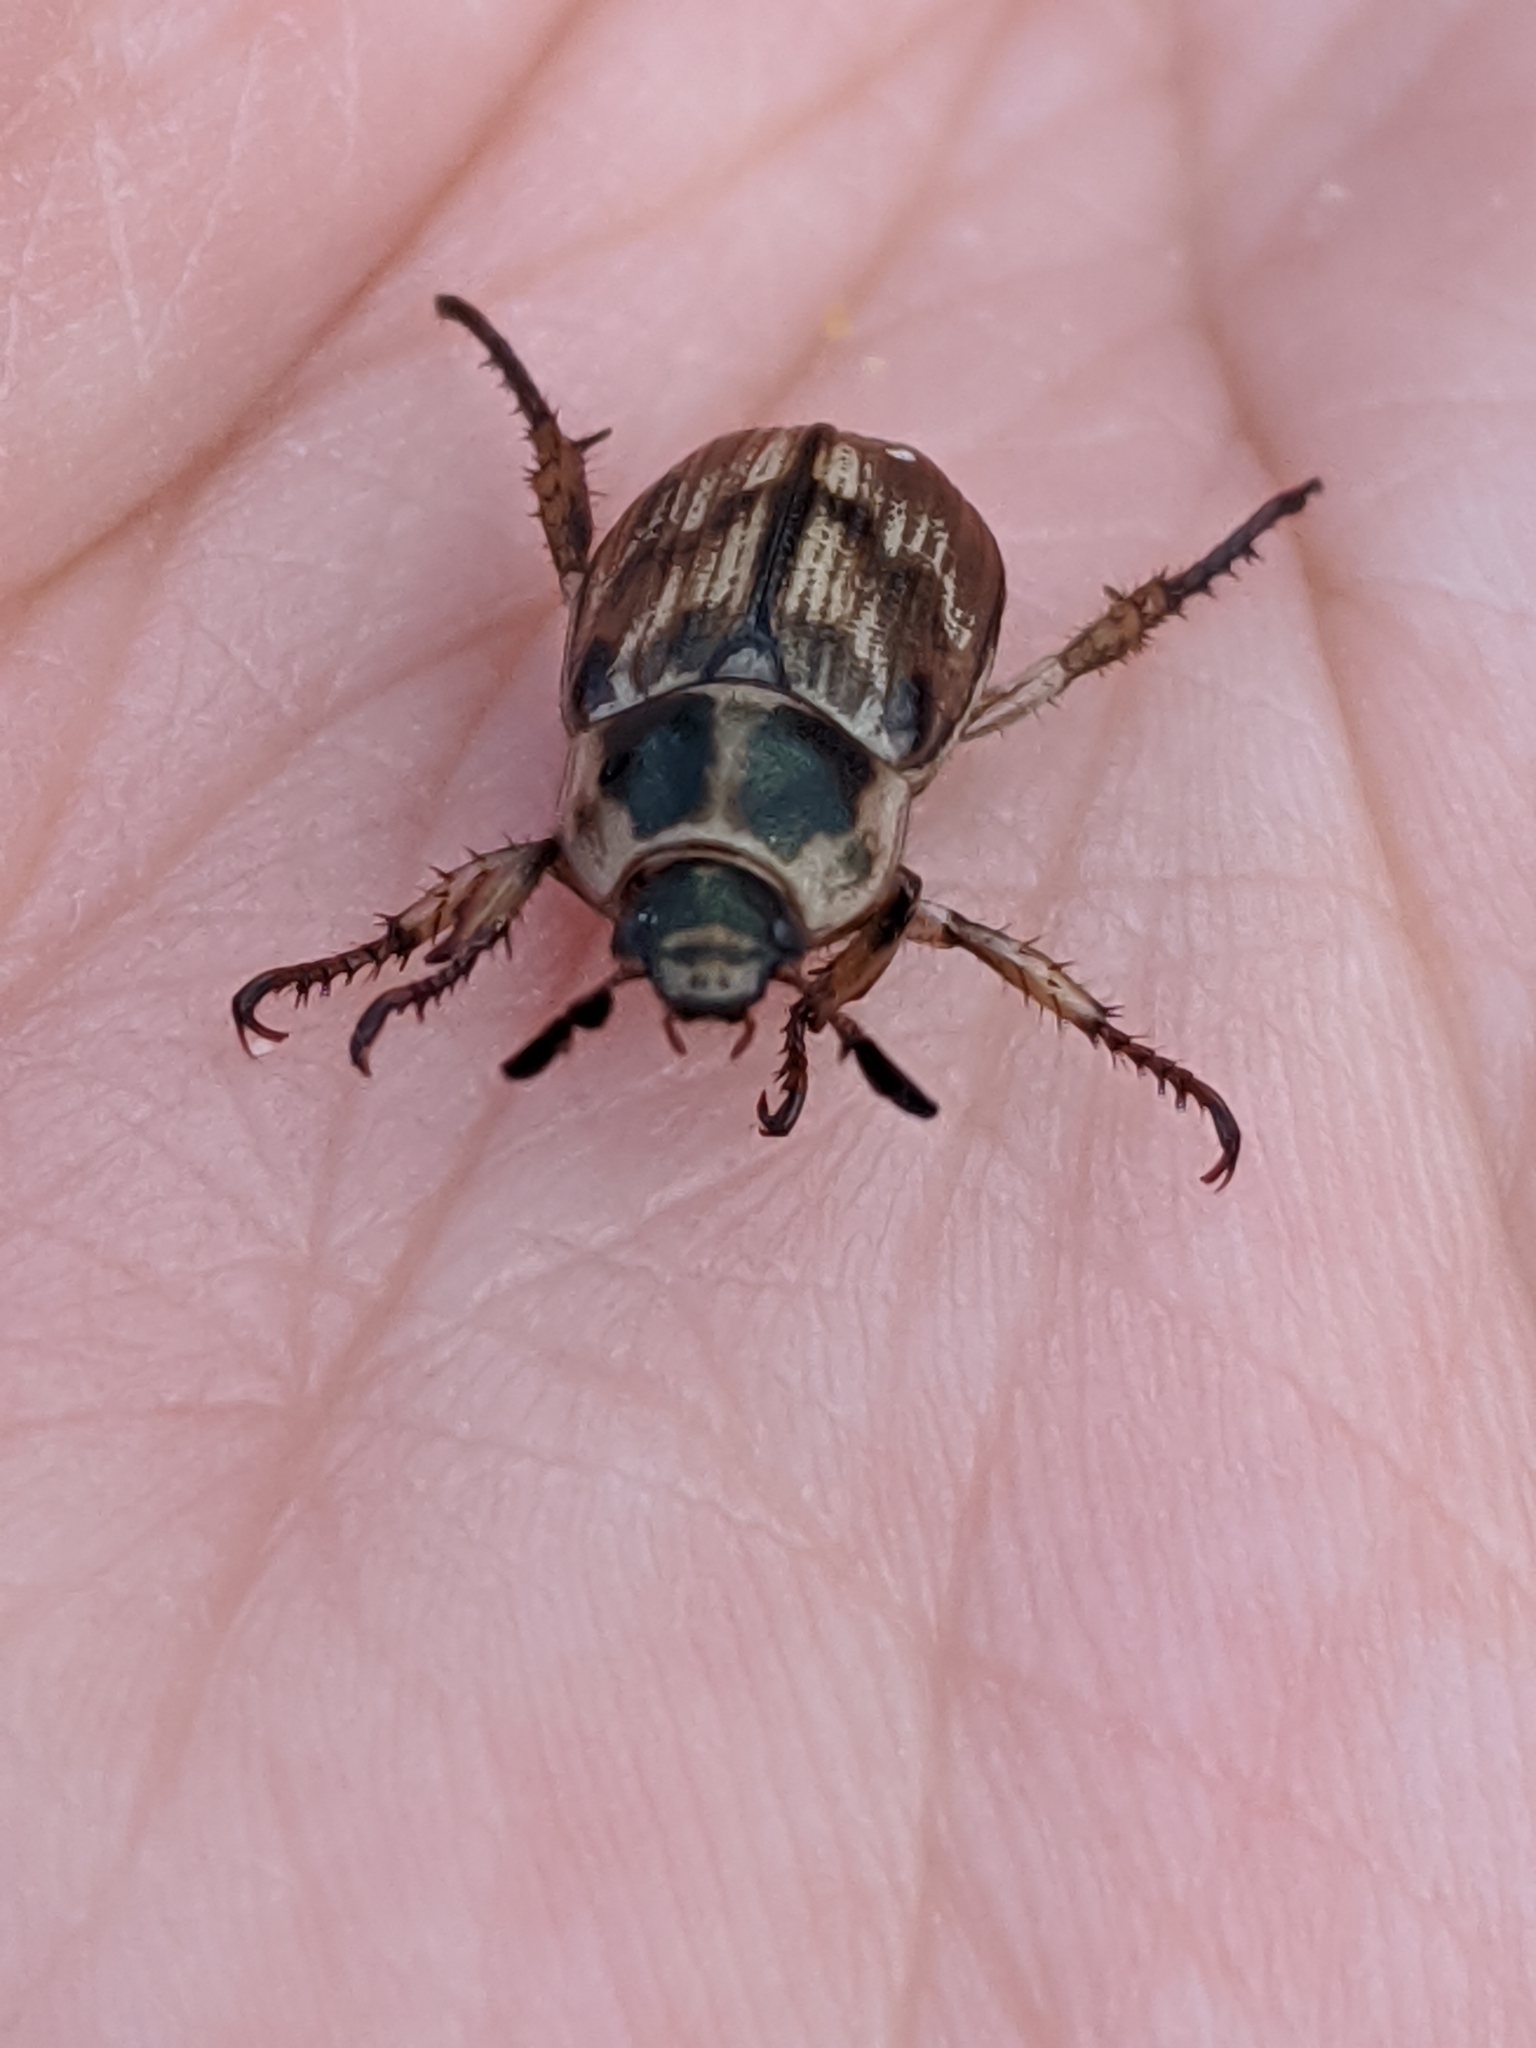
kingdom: Animalia
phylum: Arthropoda
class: Insecta
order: Coleoptera
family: Scarabaeidae
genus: Exomala
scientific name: Exomala orientalis
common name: Oriental beetle
